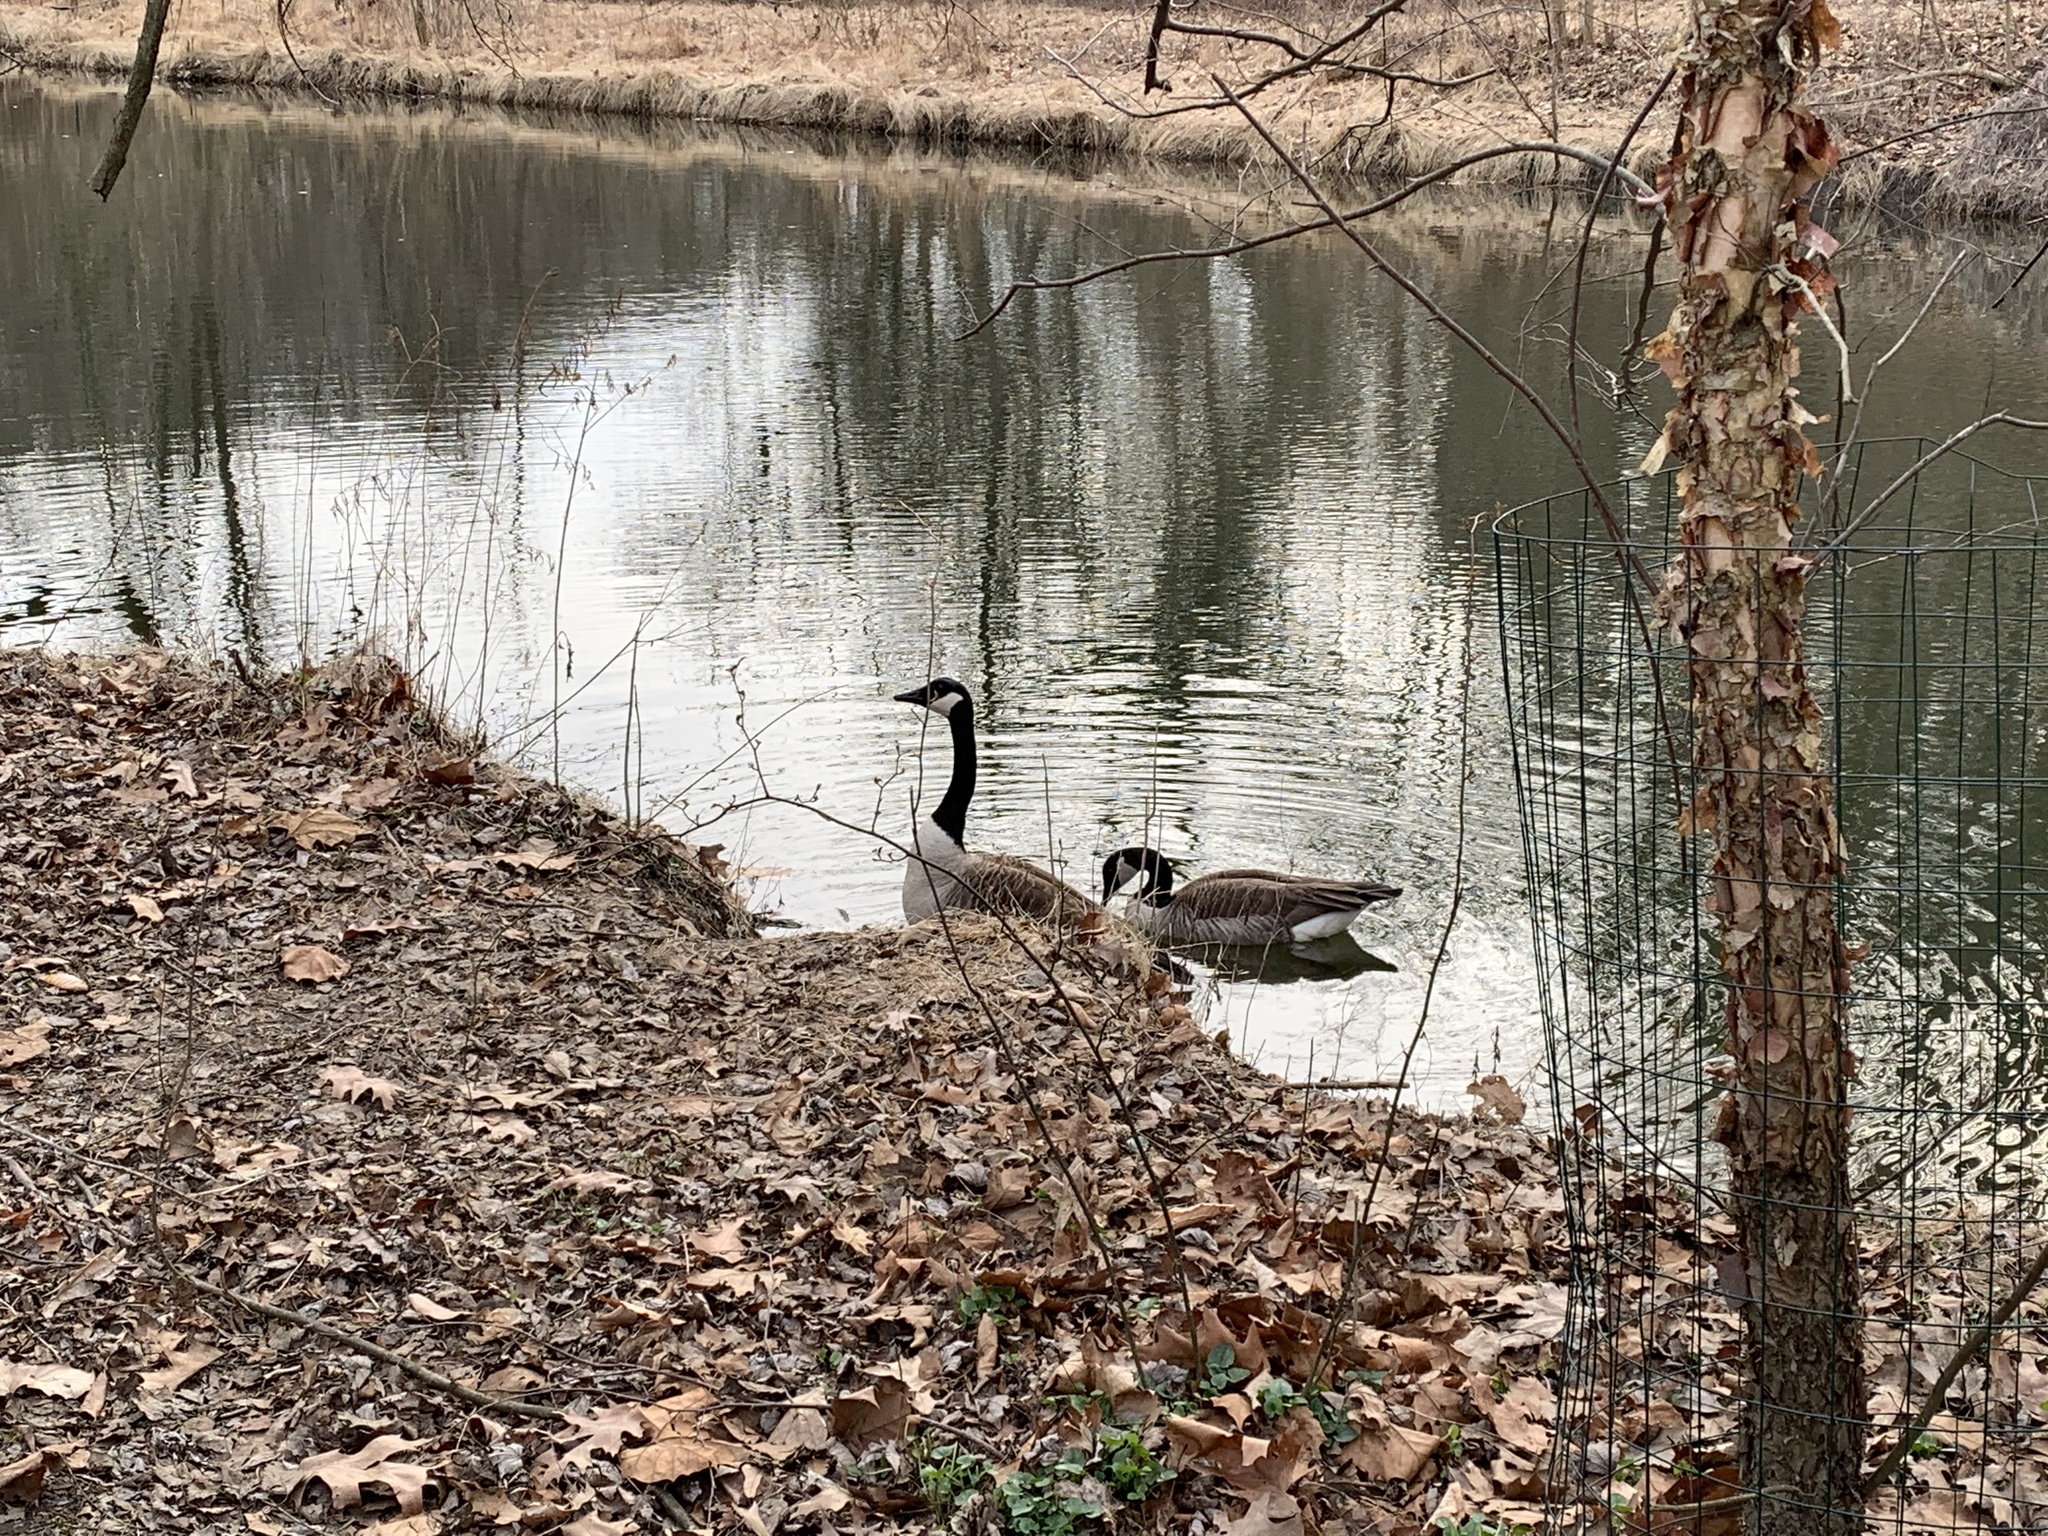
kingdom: Animalia
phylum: Chordata
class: Aves
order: Anseriformes
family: Anatidae
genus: Branta
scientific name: Branta canadensis
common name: Canada goose
